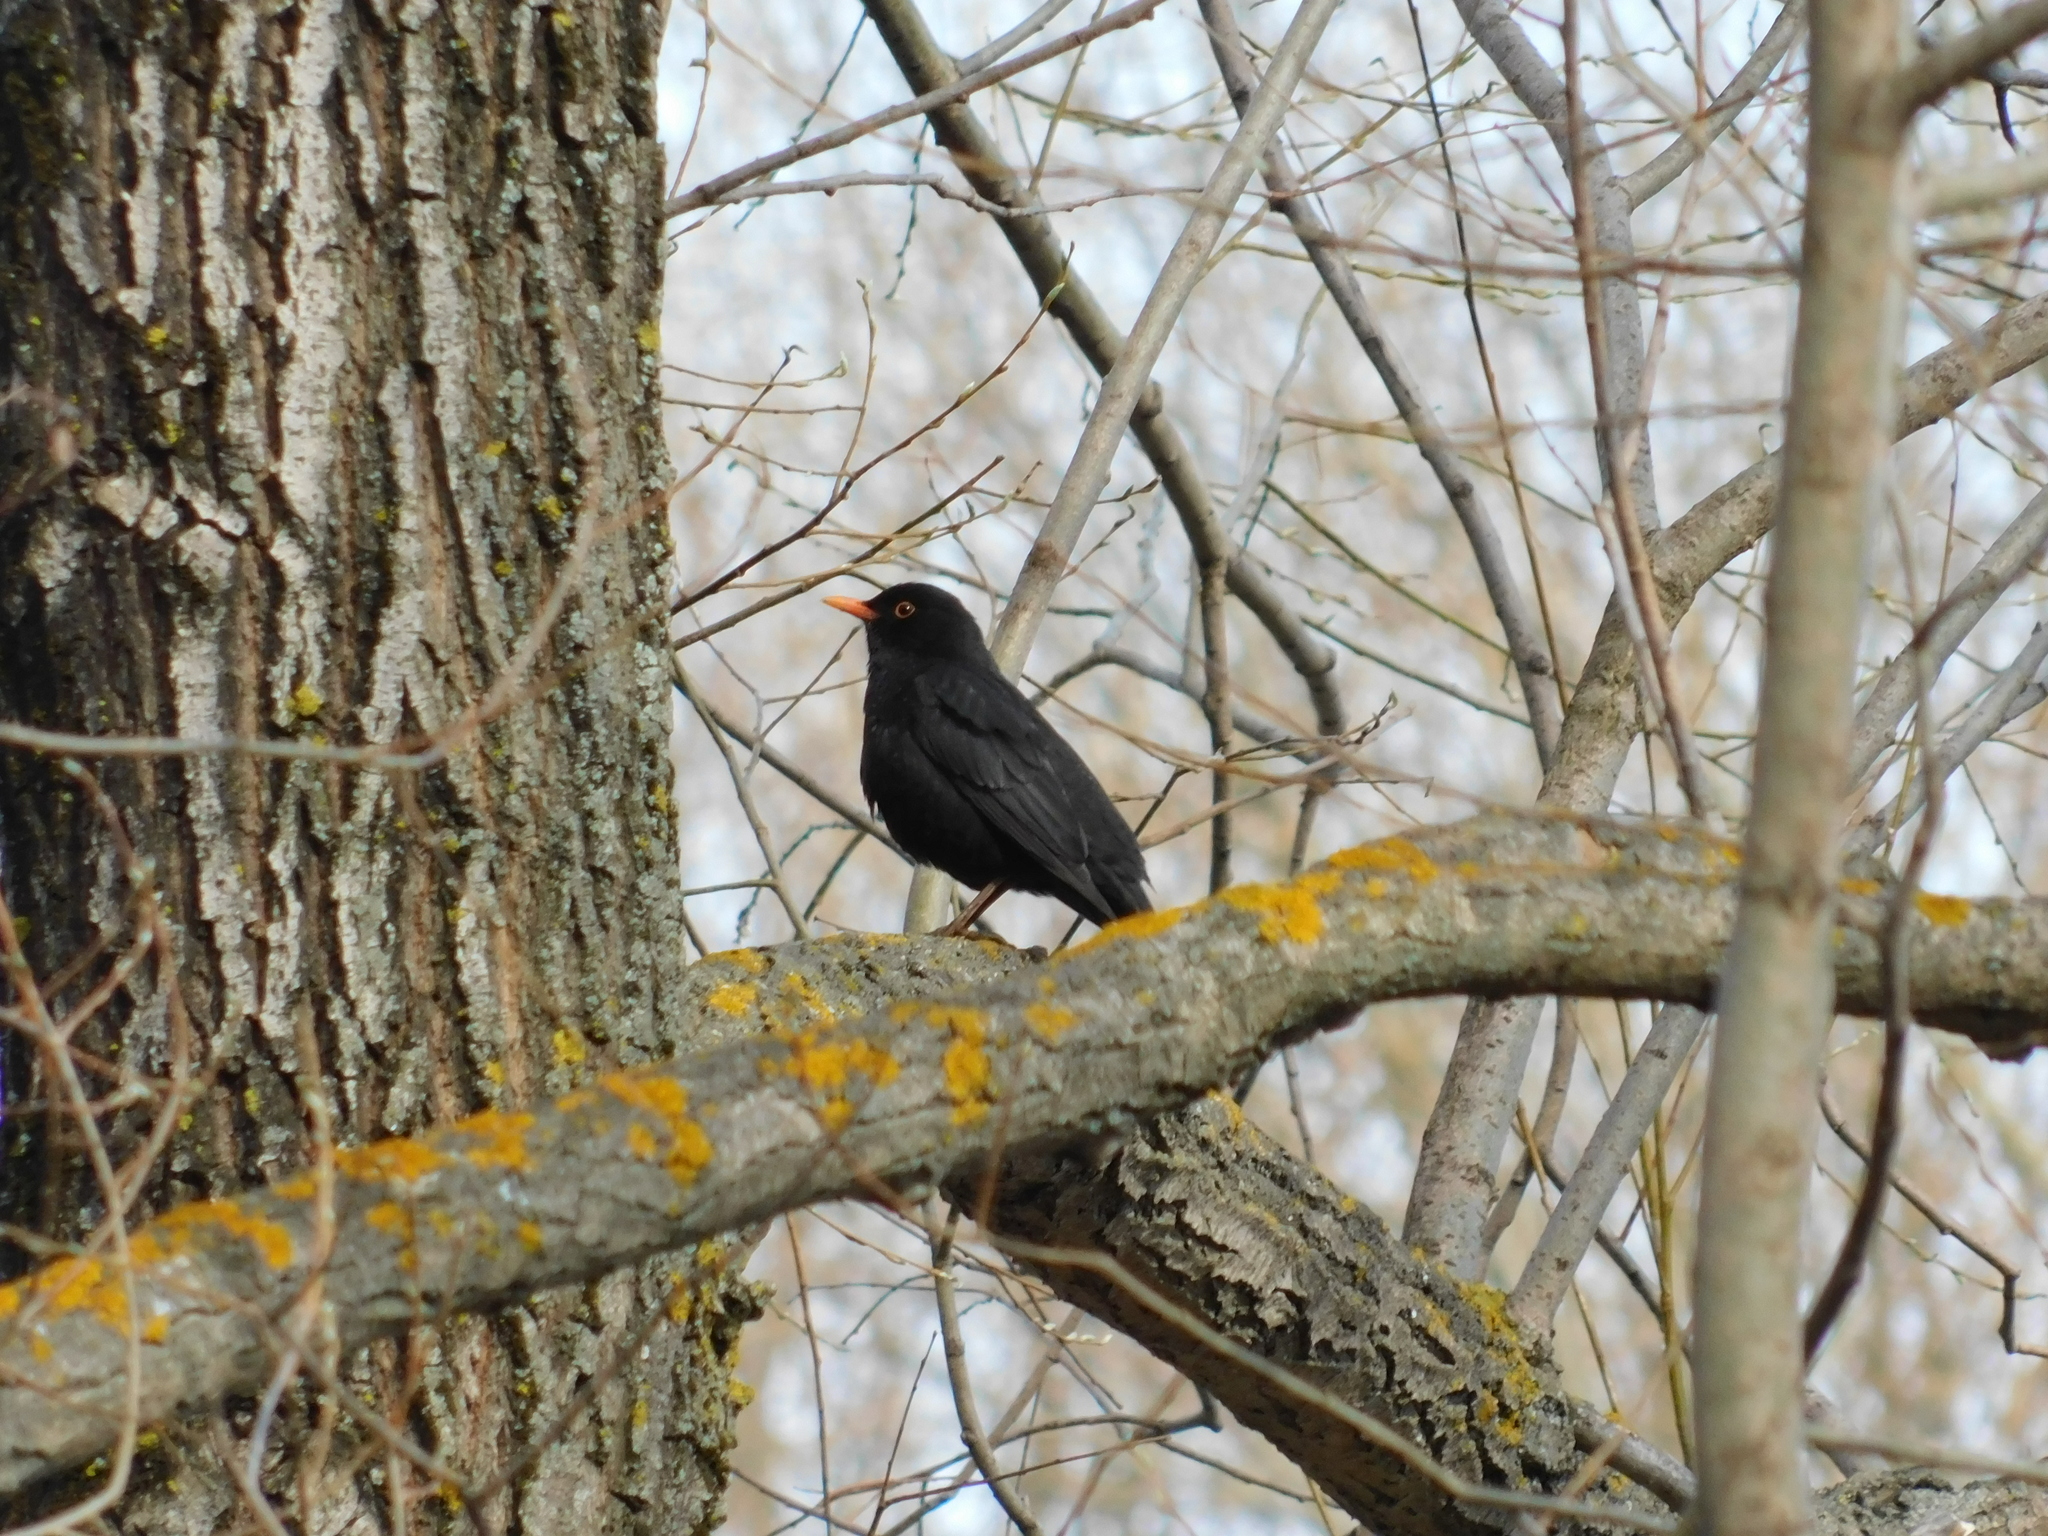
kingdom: Animalia
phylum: Chordata
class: Aves
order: Passeriformes
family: Turdidae
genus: Turdus
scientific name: Turdus merula
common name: Common blackbird
